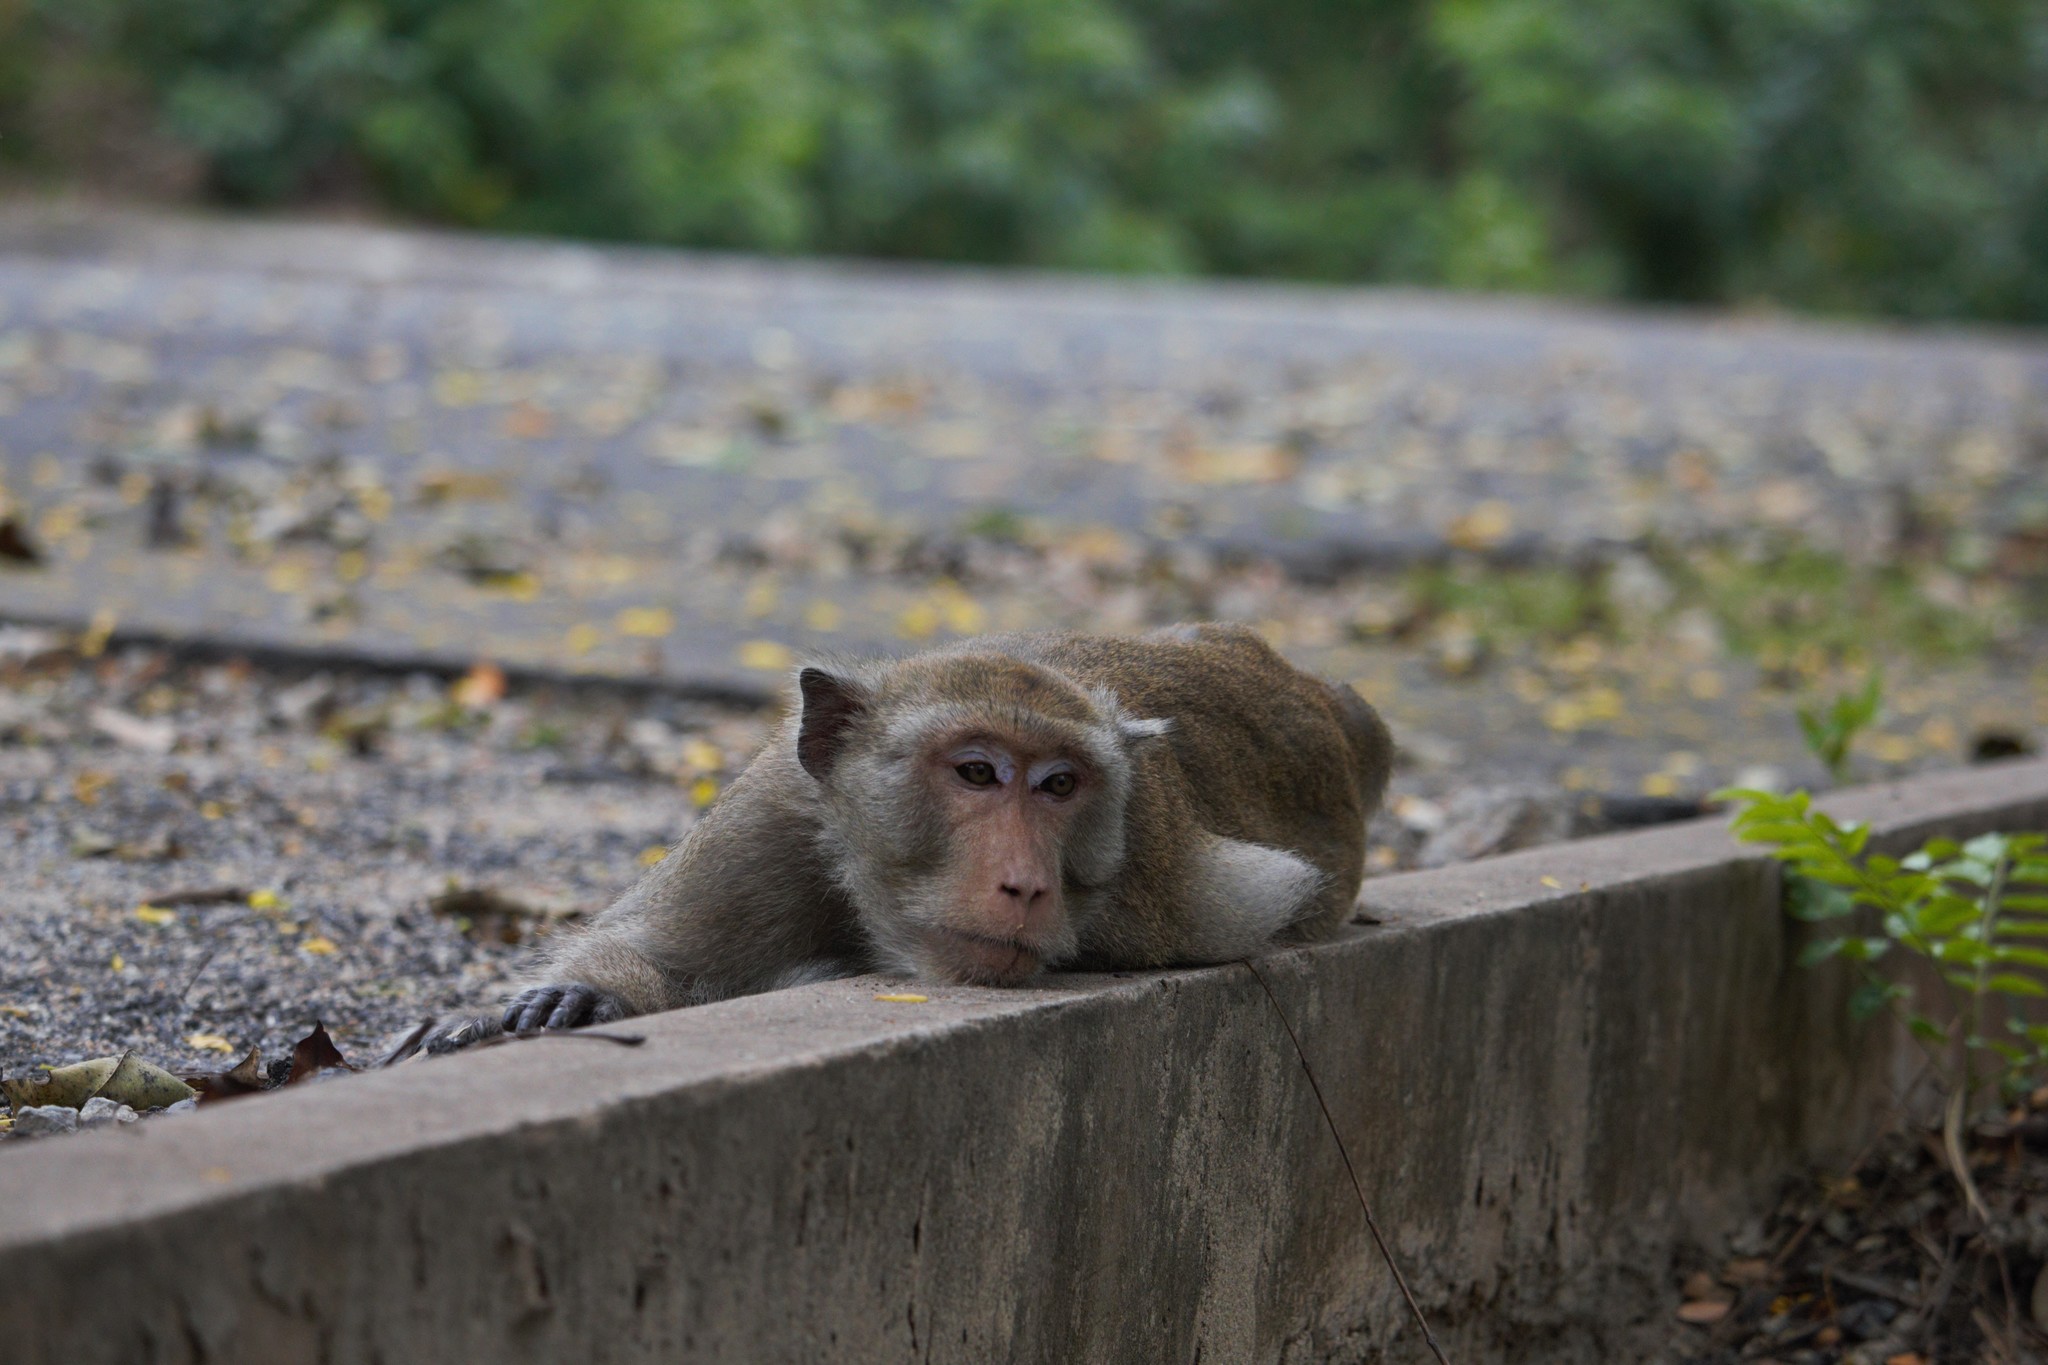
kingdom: Animalia
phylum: Chordata
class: Mammalia
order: Primates
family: Cercopithecidae
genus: Macaca
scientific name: Macaca fascicularis
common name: Crab-eating macaque
